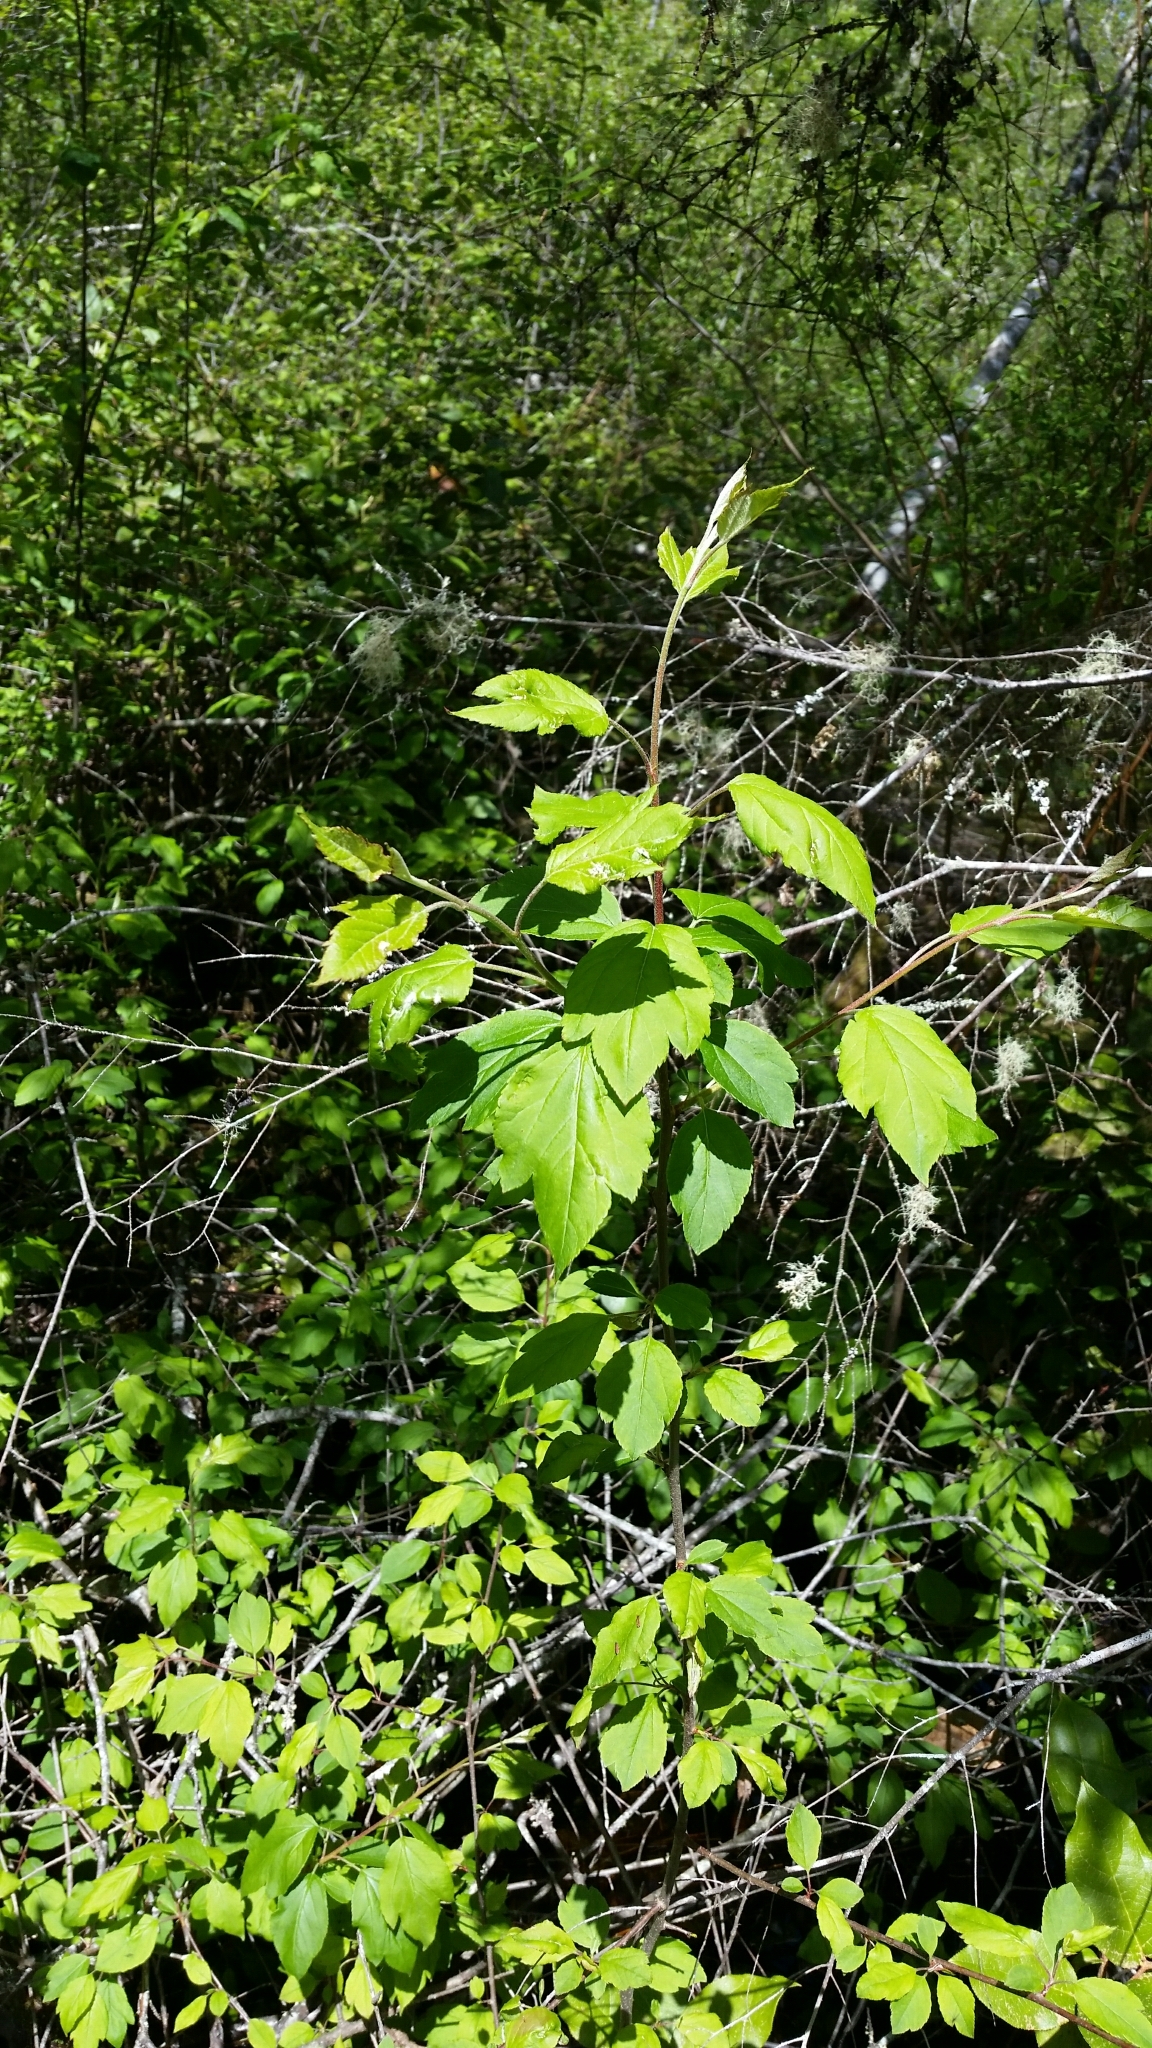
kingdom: Plantae
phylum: Tracheophyta
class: Magnoliopsida
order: Rosales
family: Rosaceae
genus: Malus
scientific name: Malus fusca
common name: Oregon crab apple
